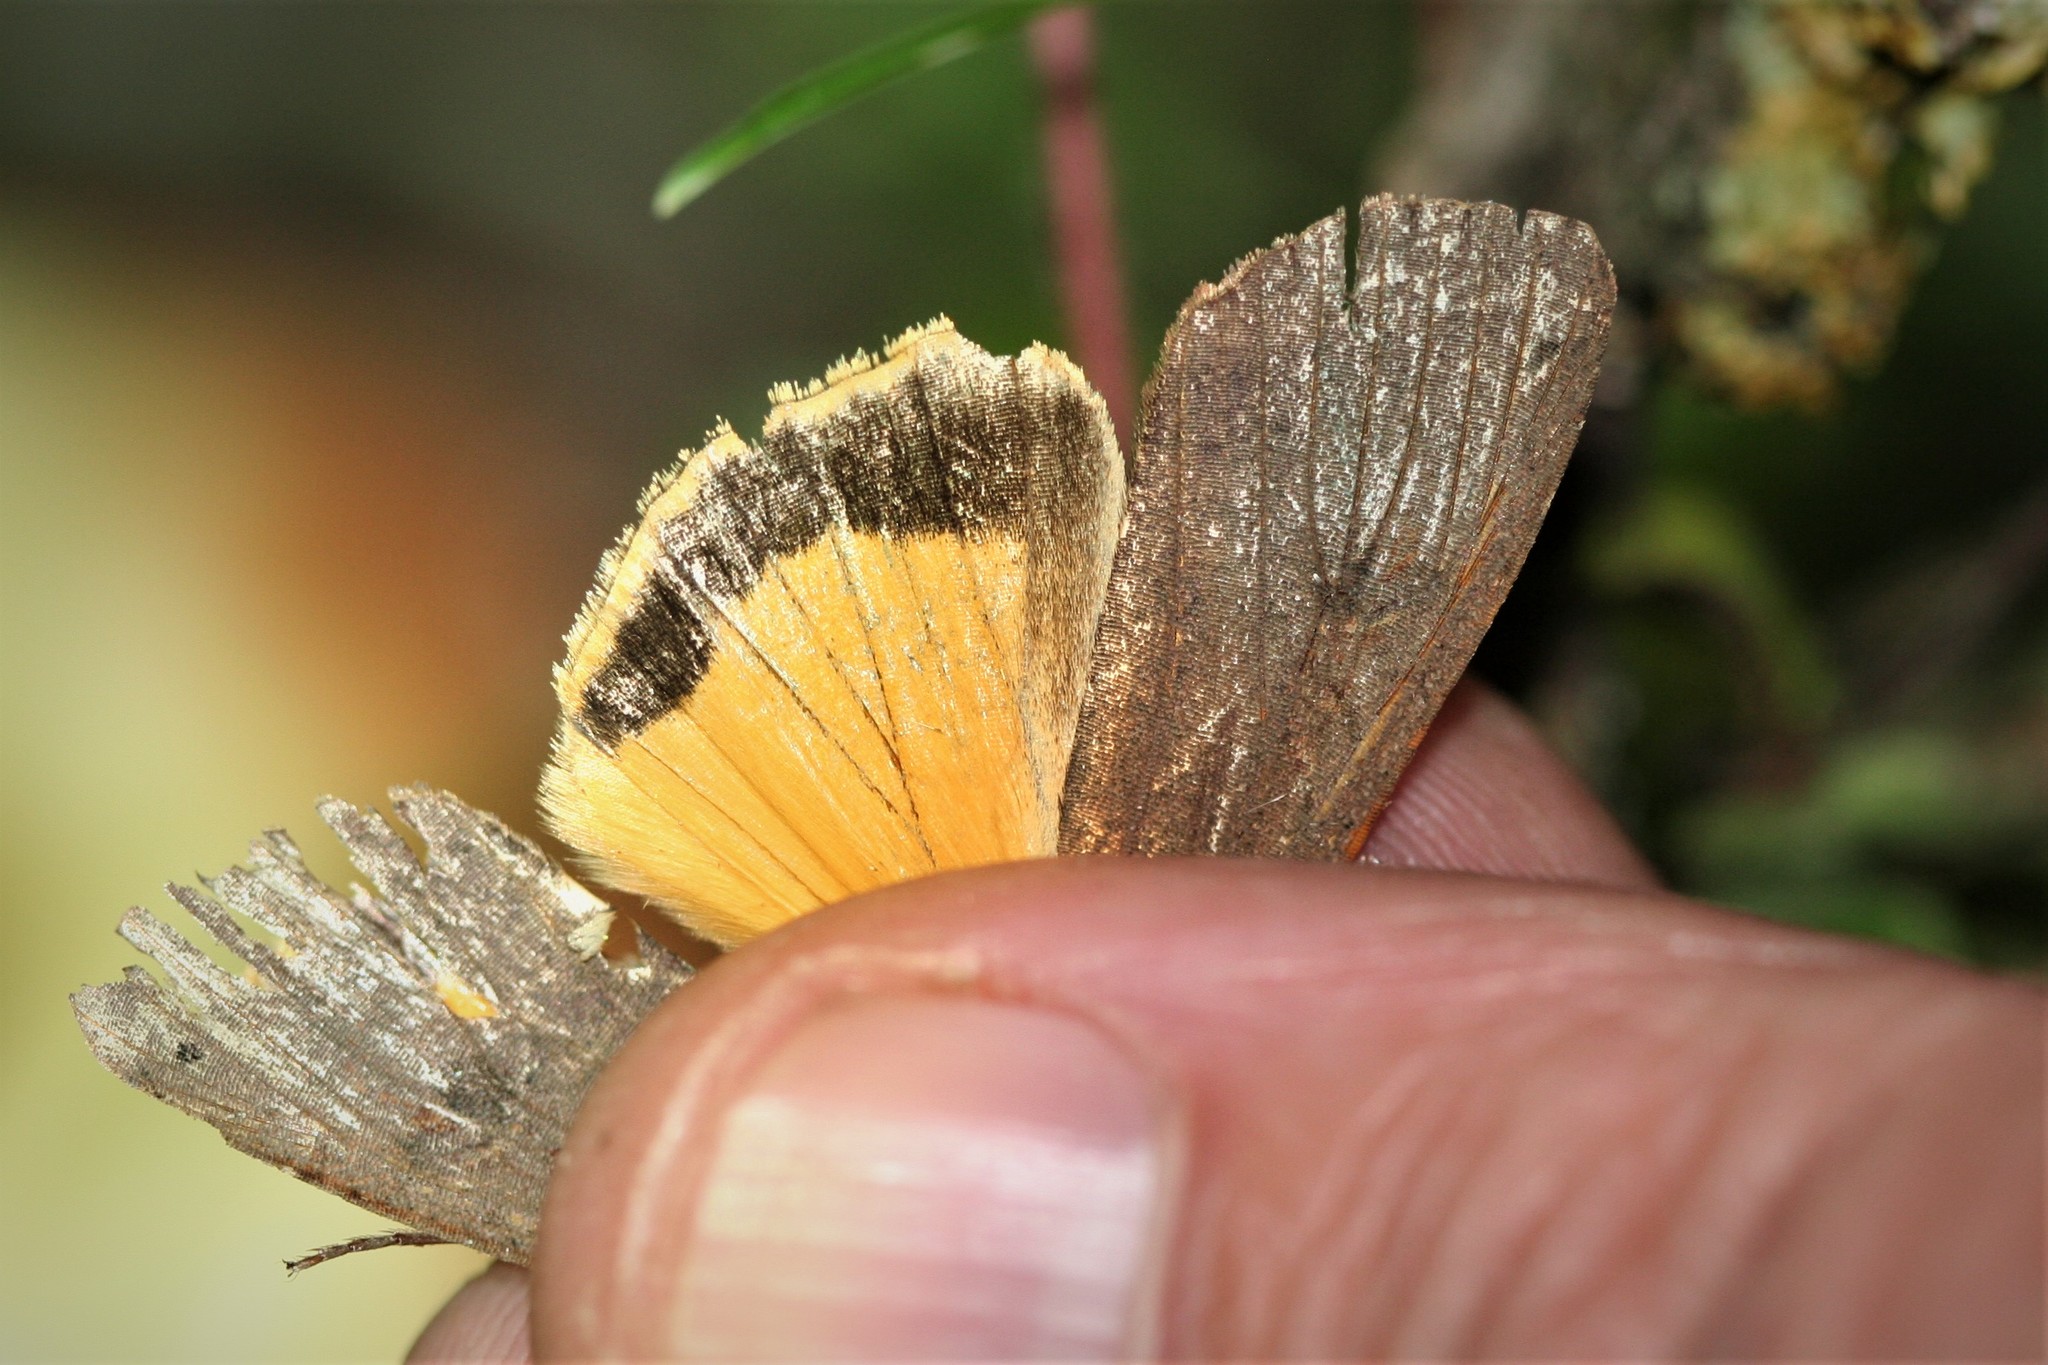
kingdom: Animalia
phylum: Arthropoda
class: Insecta
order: Lepidoptera
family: Noctuidae
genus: Noctua
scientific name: Noctua pronuba
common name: Large yellow underwing
